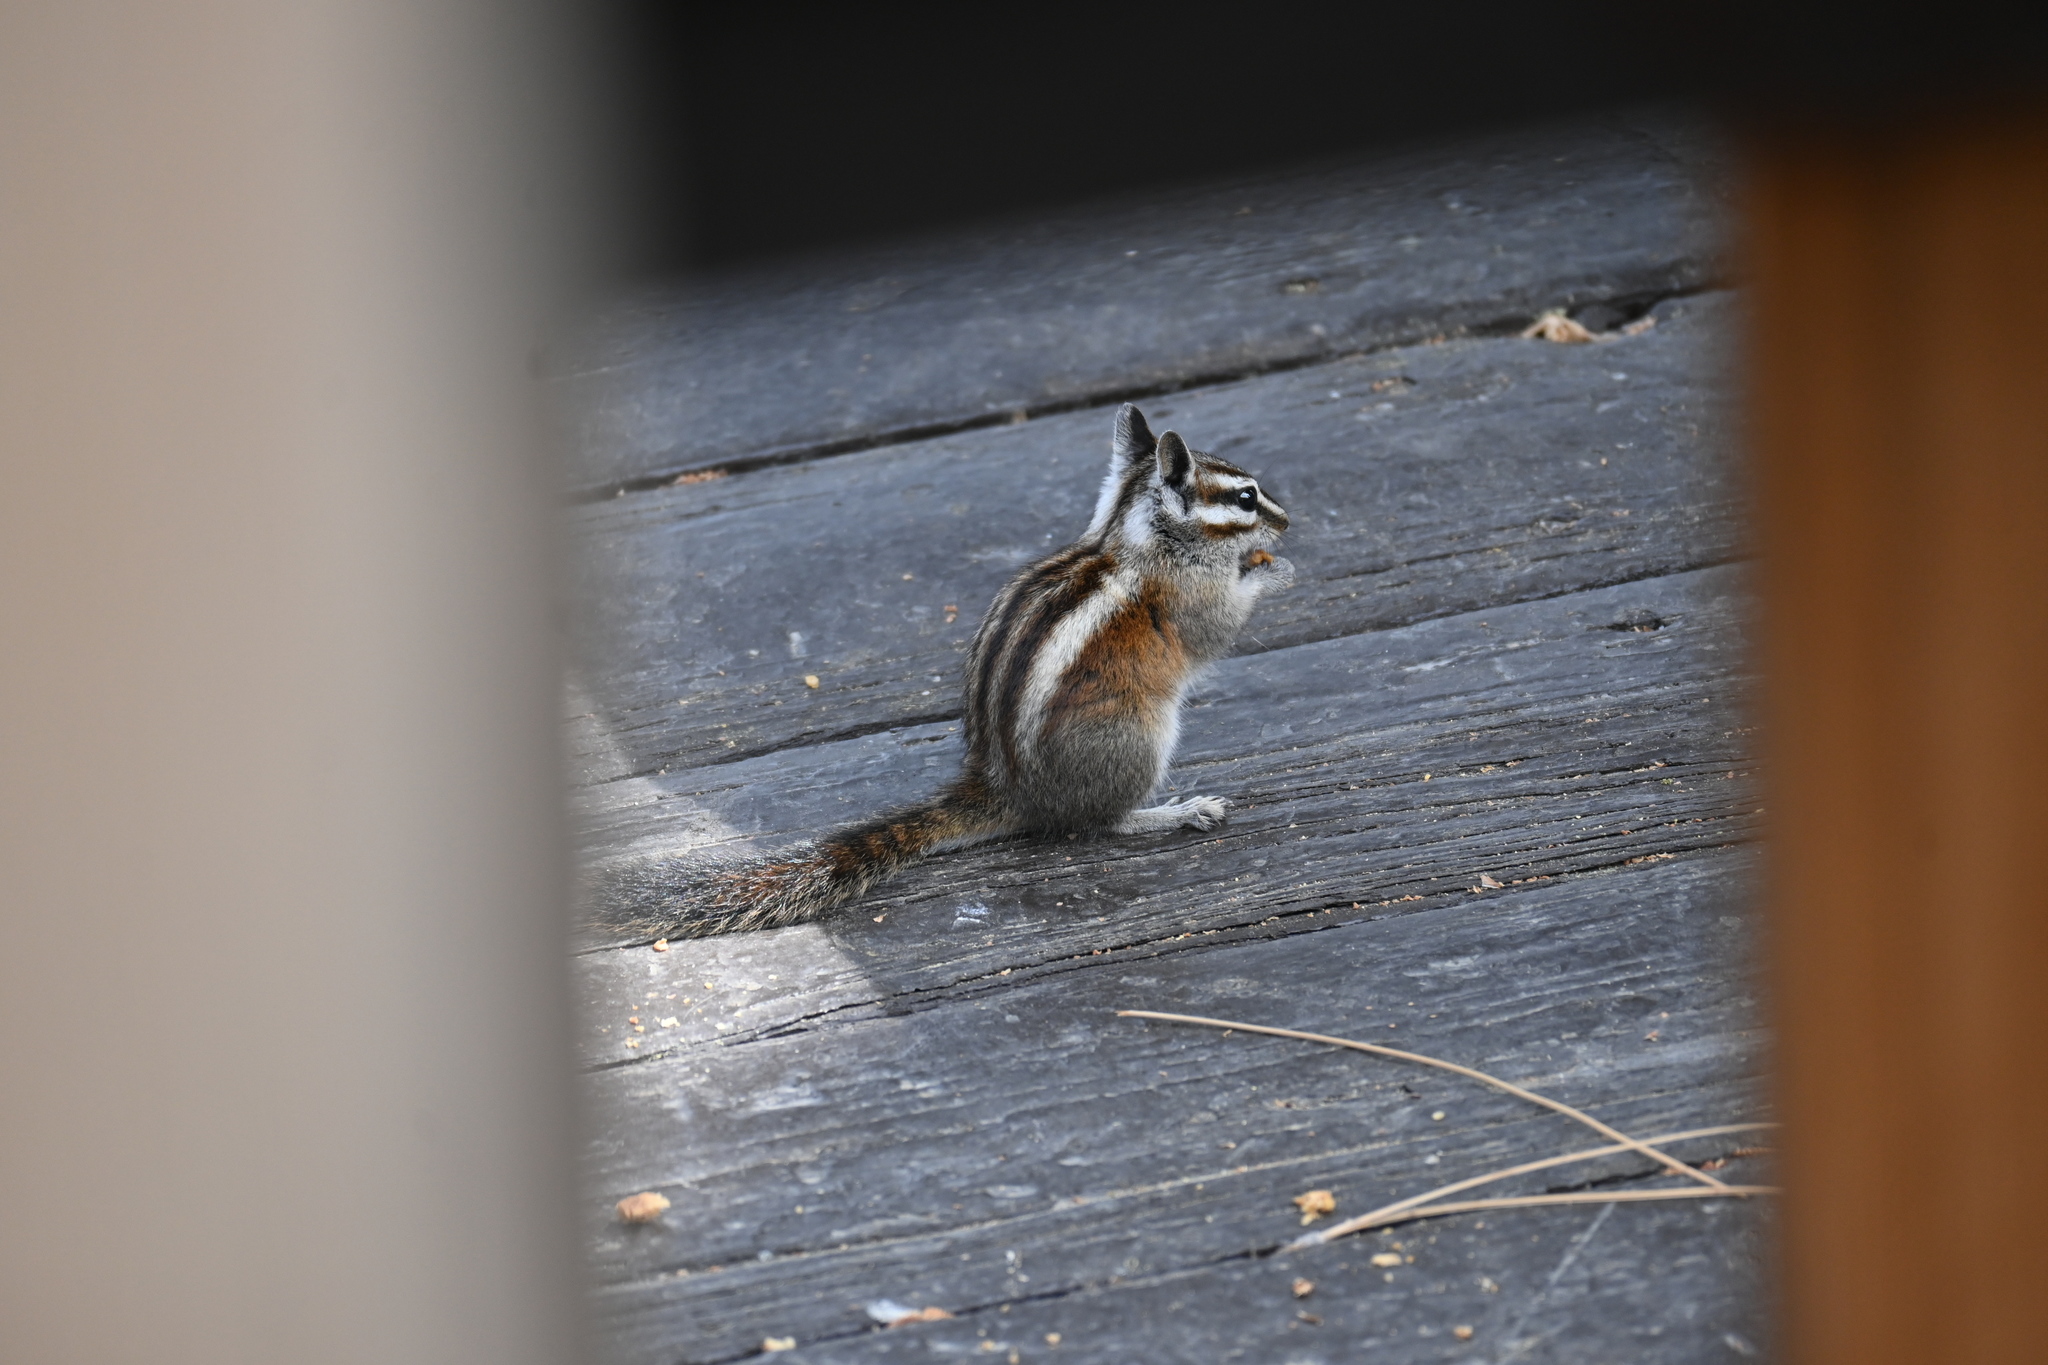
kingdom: Animalia
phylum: Chordata
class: Mammalia
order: Rodentia
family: Sciuridae
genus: Tamias
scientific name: Tamias speciosus
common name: Lodgepole chipmunk
